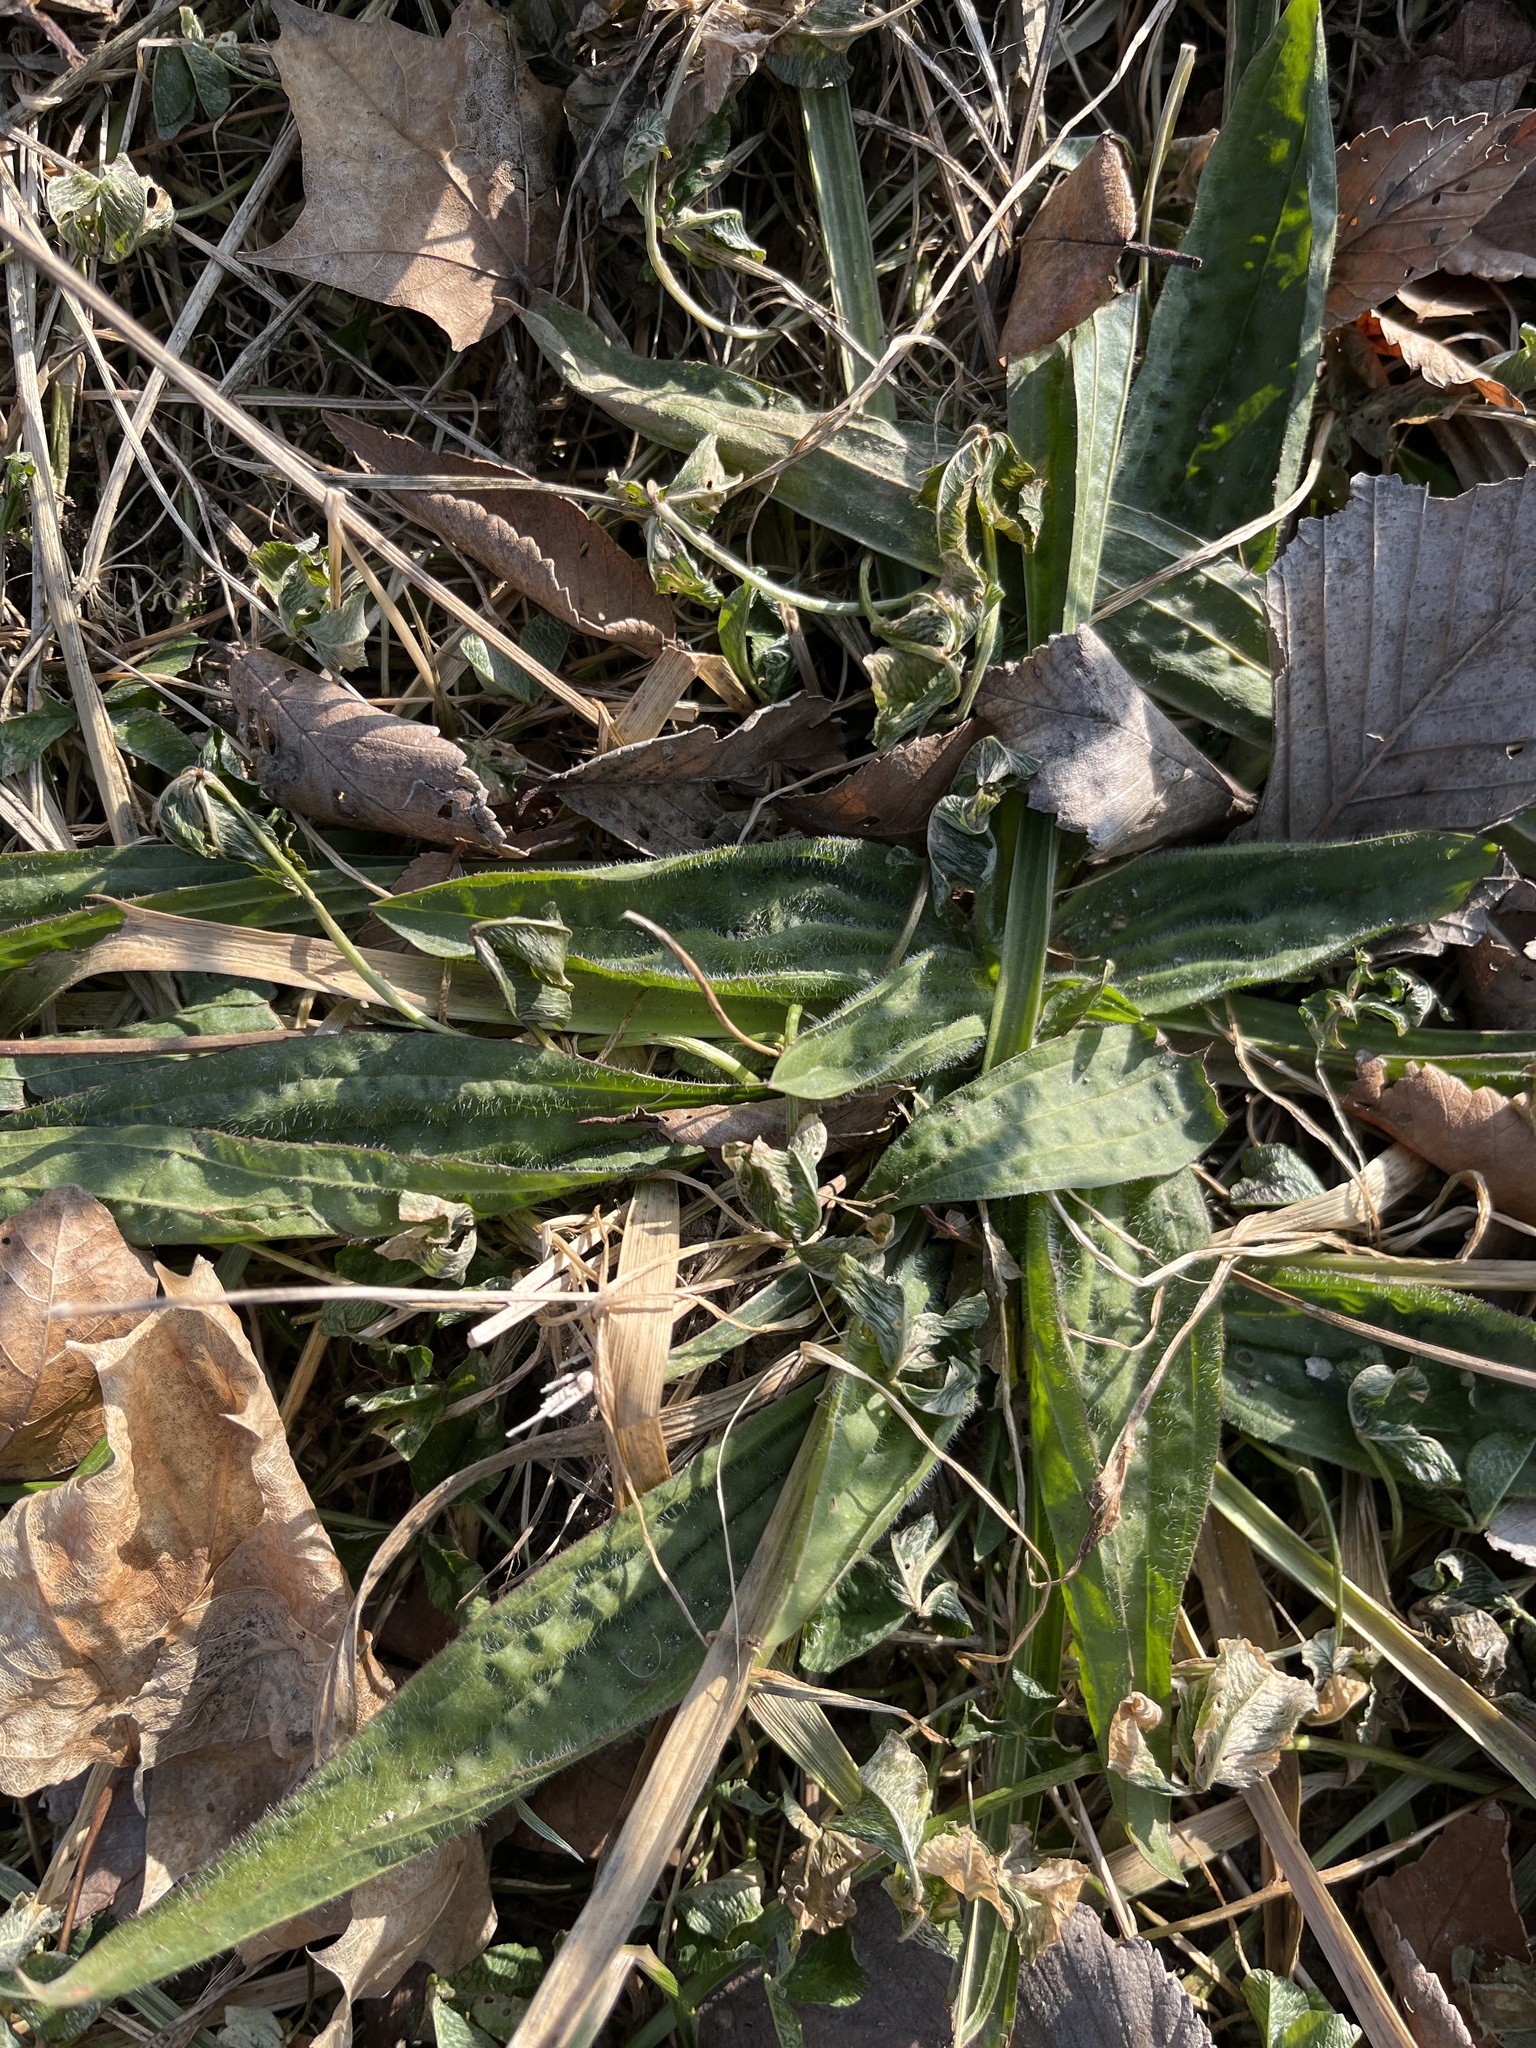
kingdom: Plantae
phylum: Tracheophyta
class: Magnoliopsida
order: Lamiales
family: Plantaginaceae
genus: Plantago
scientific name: Plantago lanceolata
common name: Ribwort plantain
